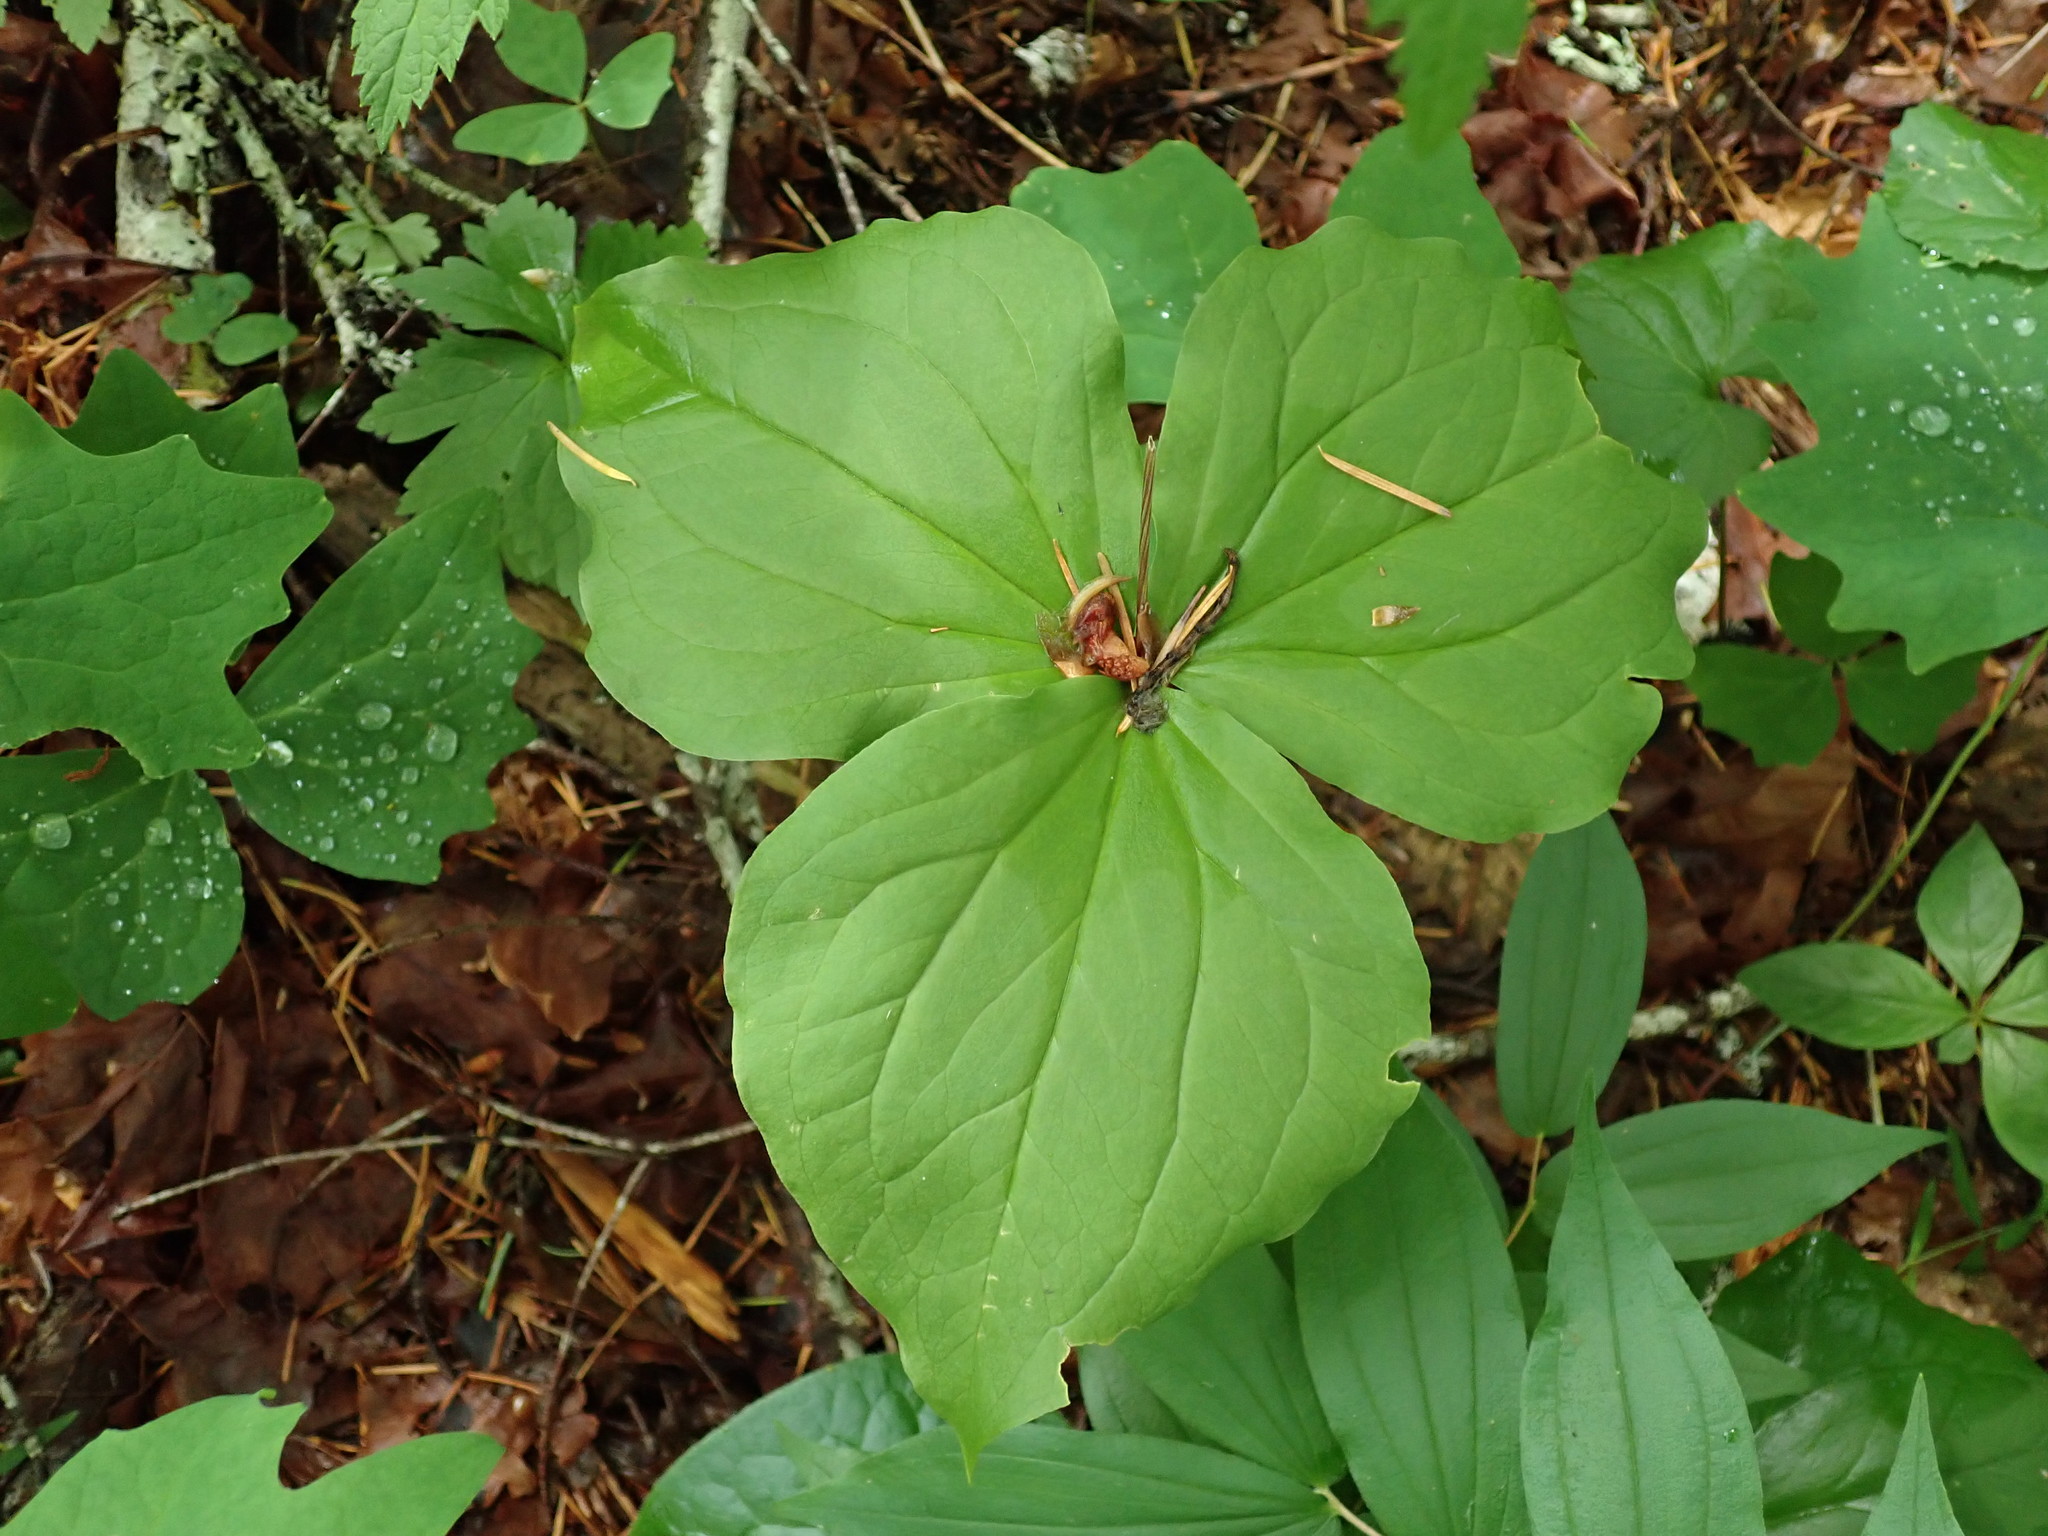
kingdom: Plantae
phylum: Tracheophyta
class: Liliopsida
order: Liliales
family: Melanthiaceae
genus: Trillium
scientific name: Trillium ovatum
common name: Pacific trillium
